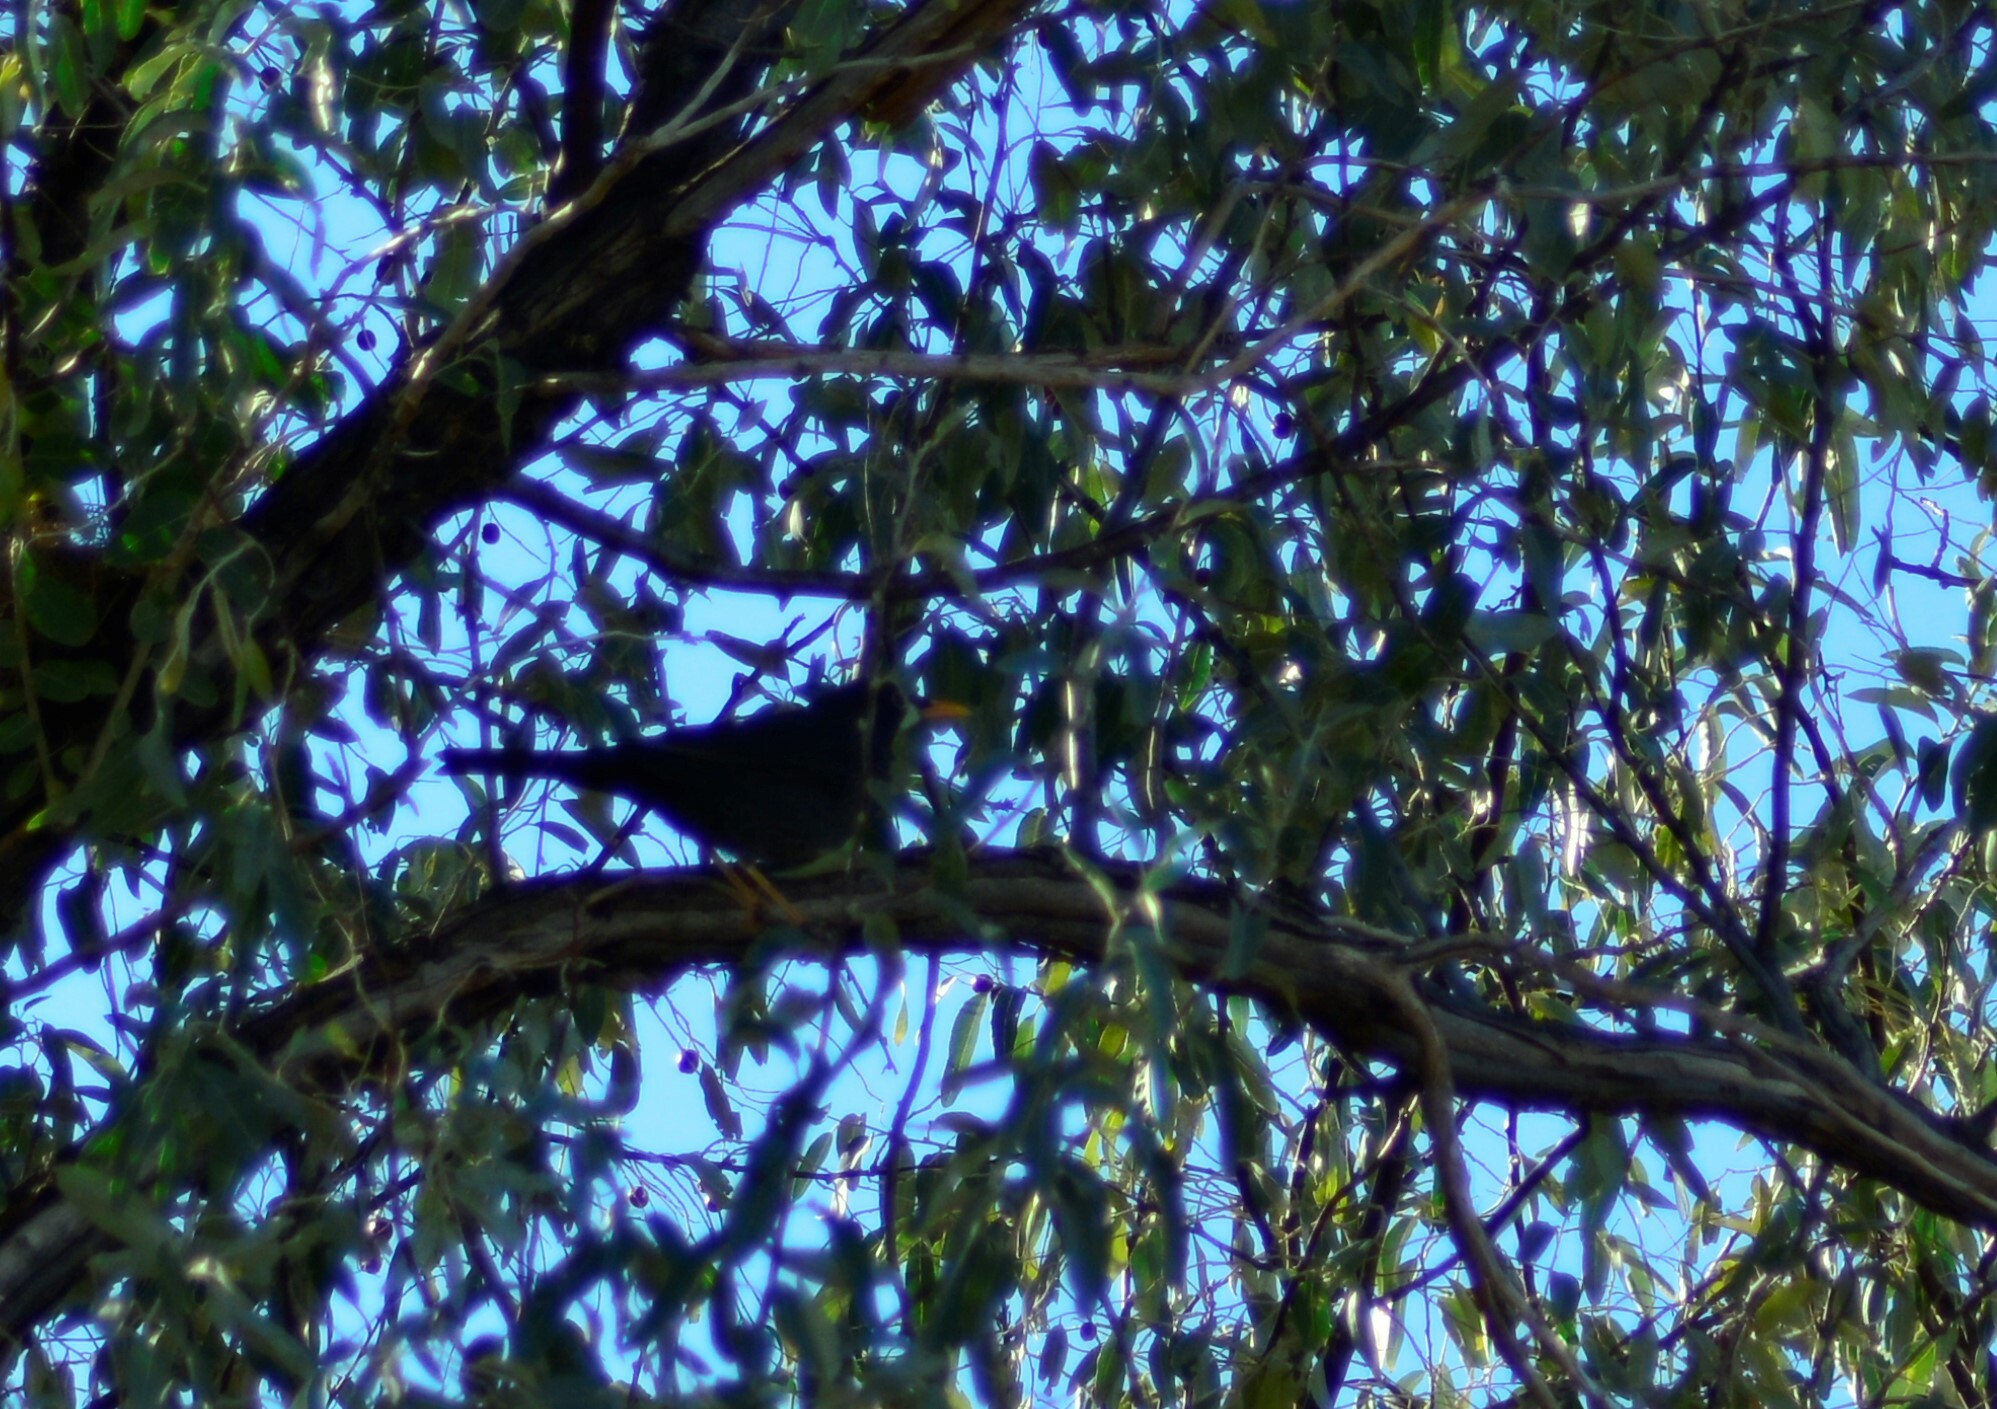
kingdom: Animalia
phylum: Chordata
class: Aves
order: Passeriformes
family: Turdidae
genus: Turdus
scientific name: Turdus chiguanco
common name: Chiguanco thrush
